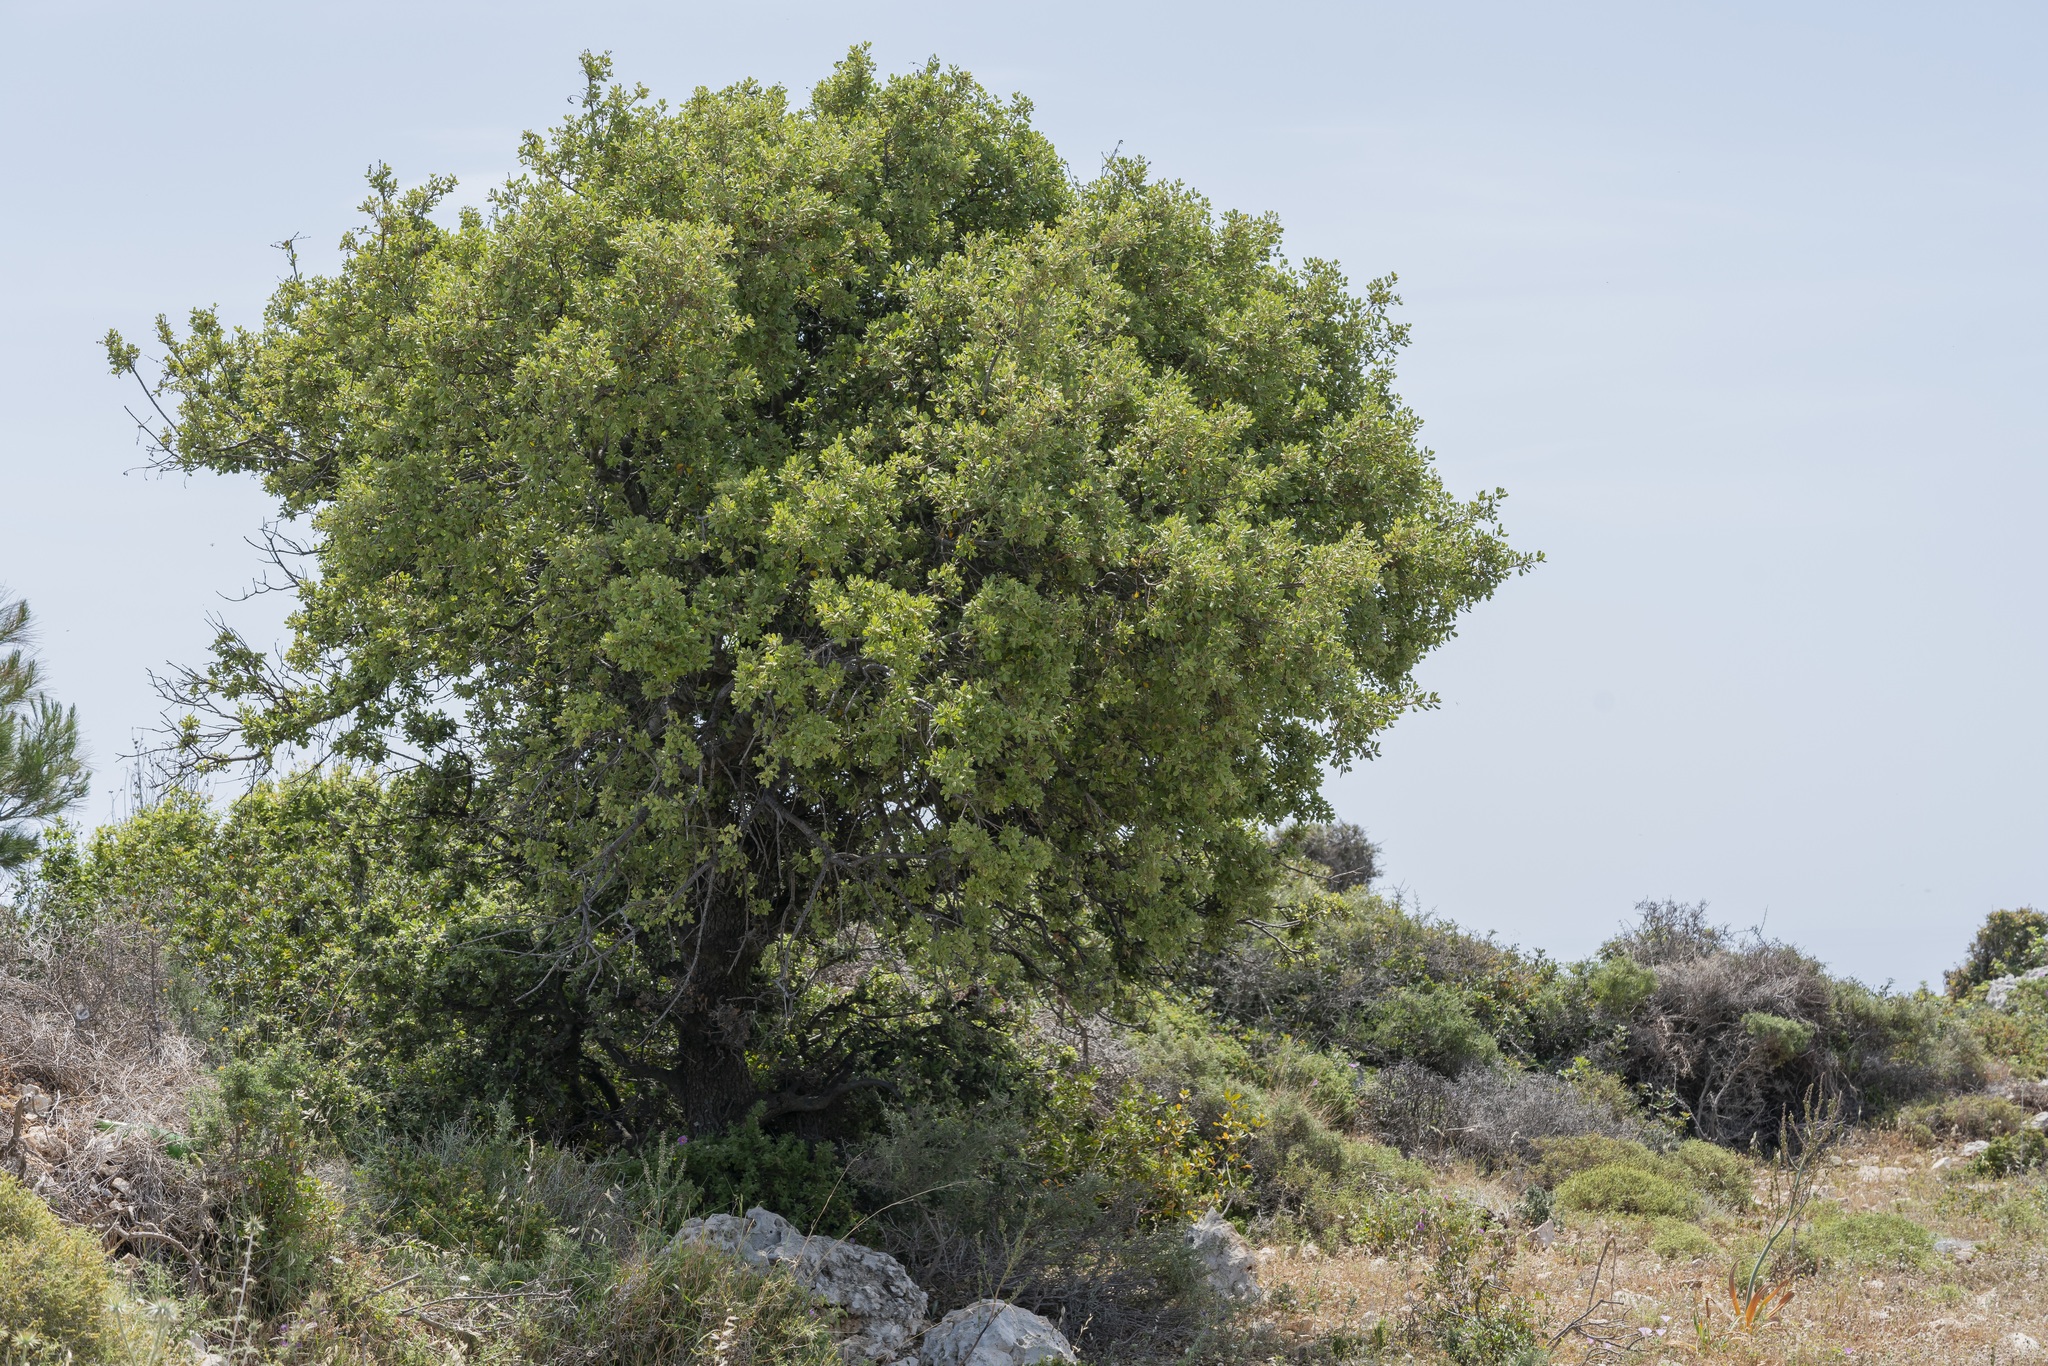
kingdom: Plantae
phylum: Tracheophyta
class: Magnoliopsida
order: Fagales
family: Fagaceae
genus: Quercus
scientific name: Quercus aucheri
